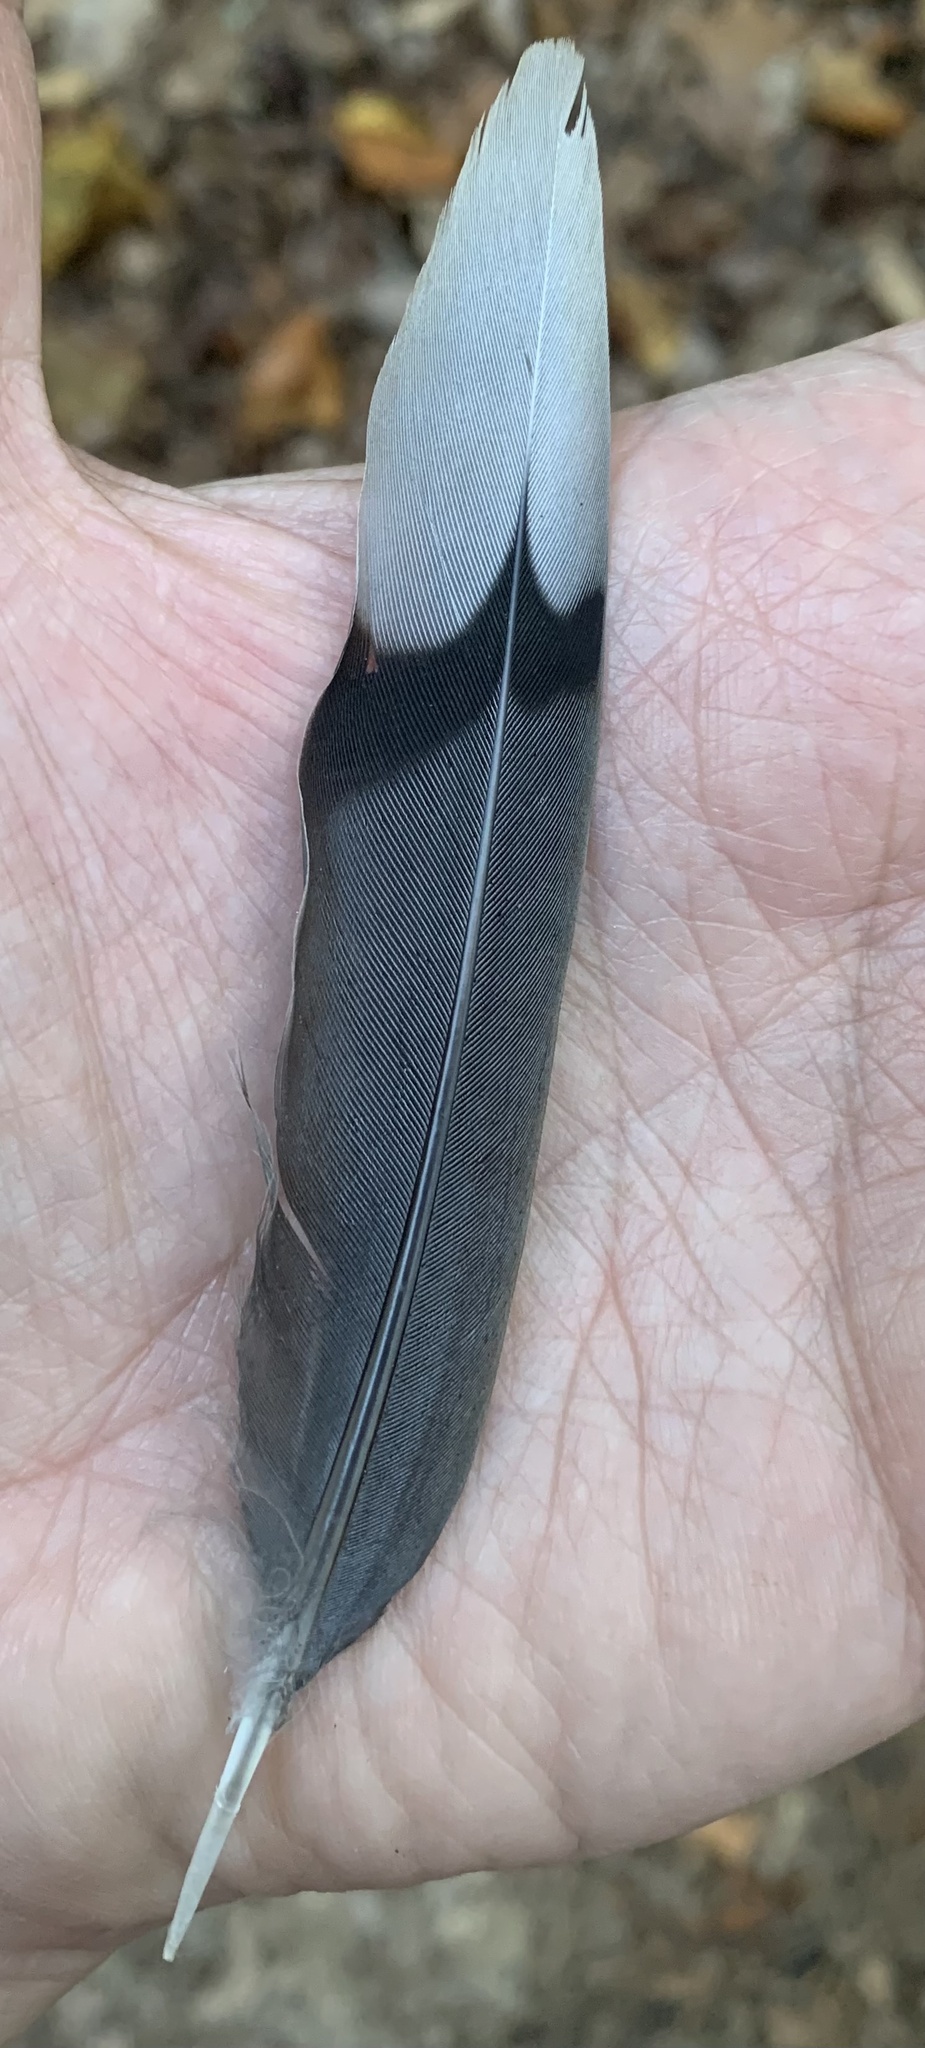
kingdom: Animalia
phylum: Chordata
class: Aves
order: Columbiformes
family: Columbidae
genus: Zenaida
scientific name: Zenaida macroura
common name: Mourning dove
